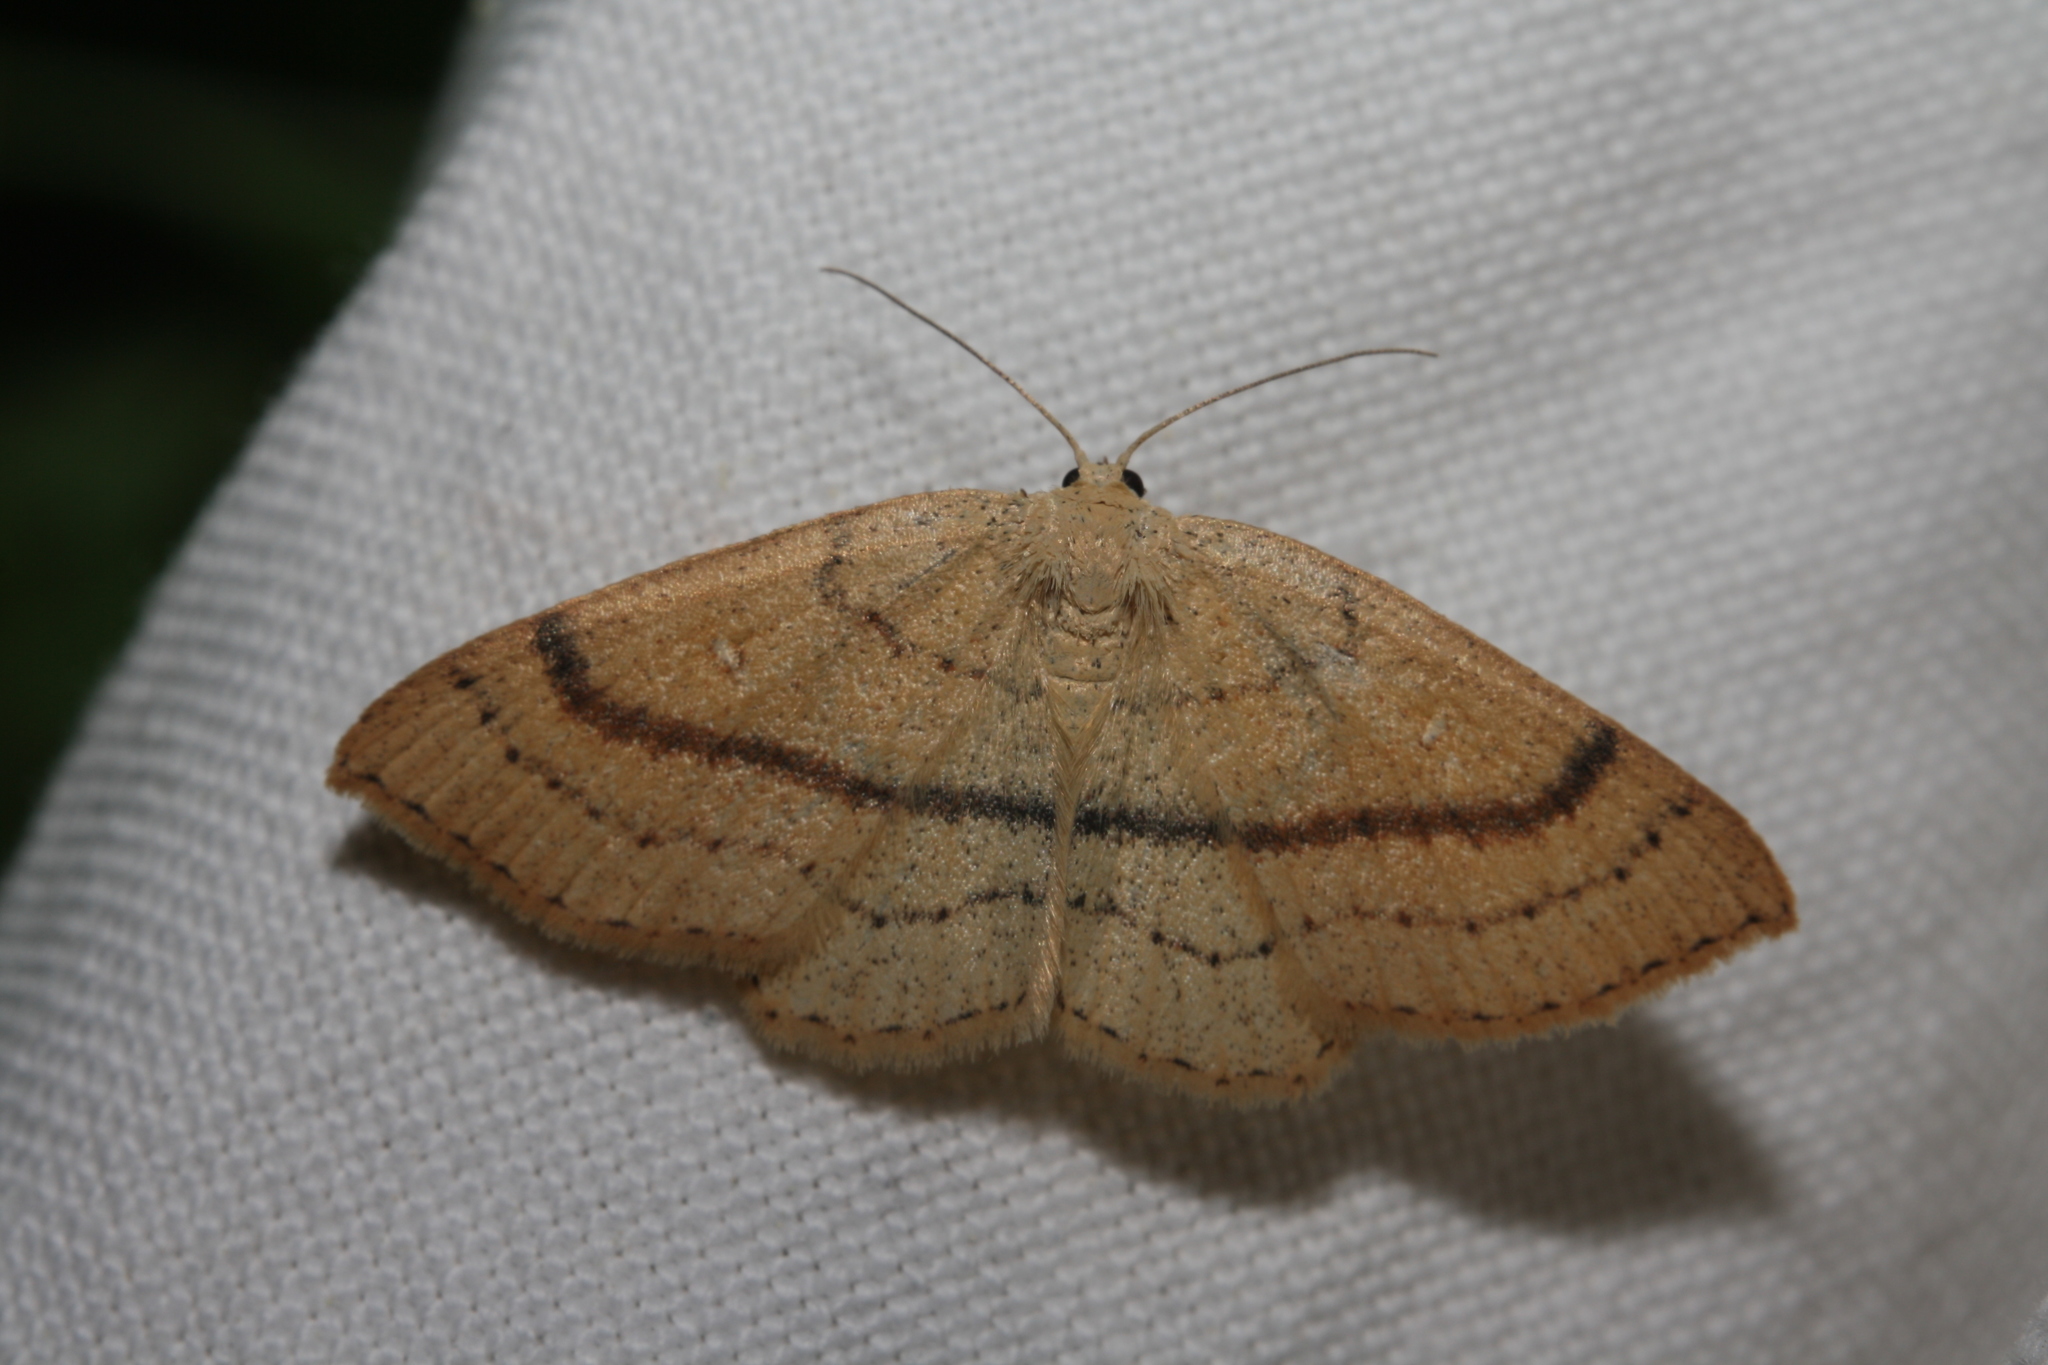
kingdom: Animalia
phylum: Arthropoda
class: Insecta
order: Lepidoptera
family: Geometridae
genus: Cyclophora
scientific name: Cyclophora linearia
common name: Clay triple-lines
